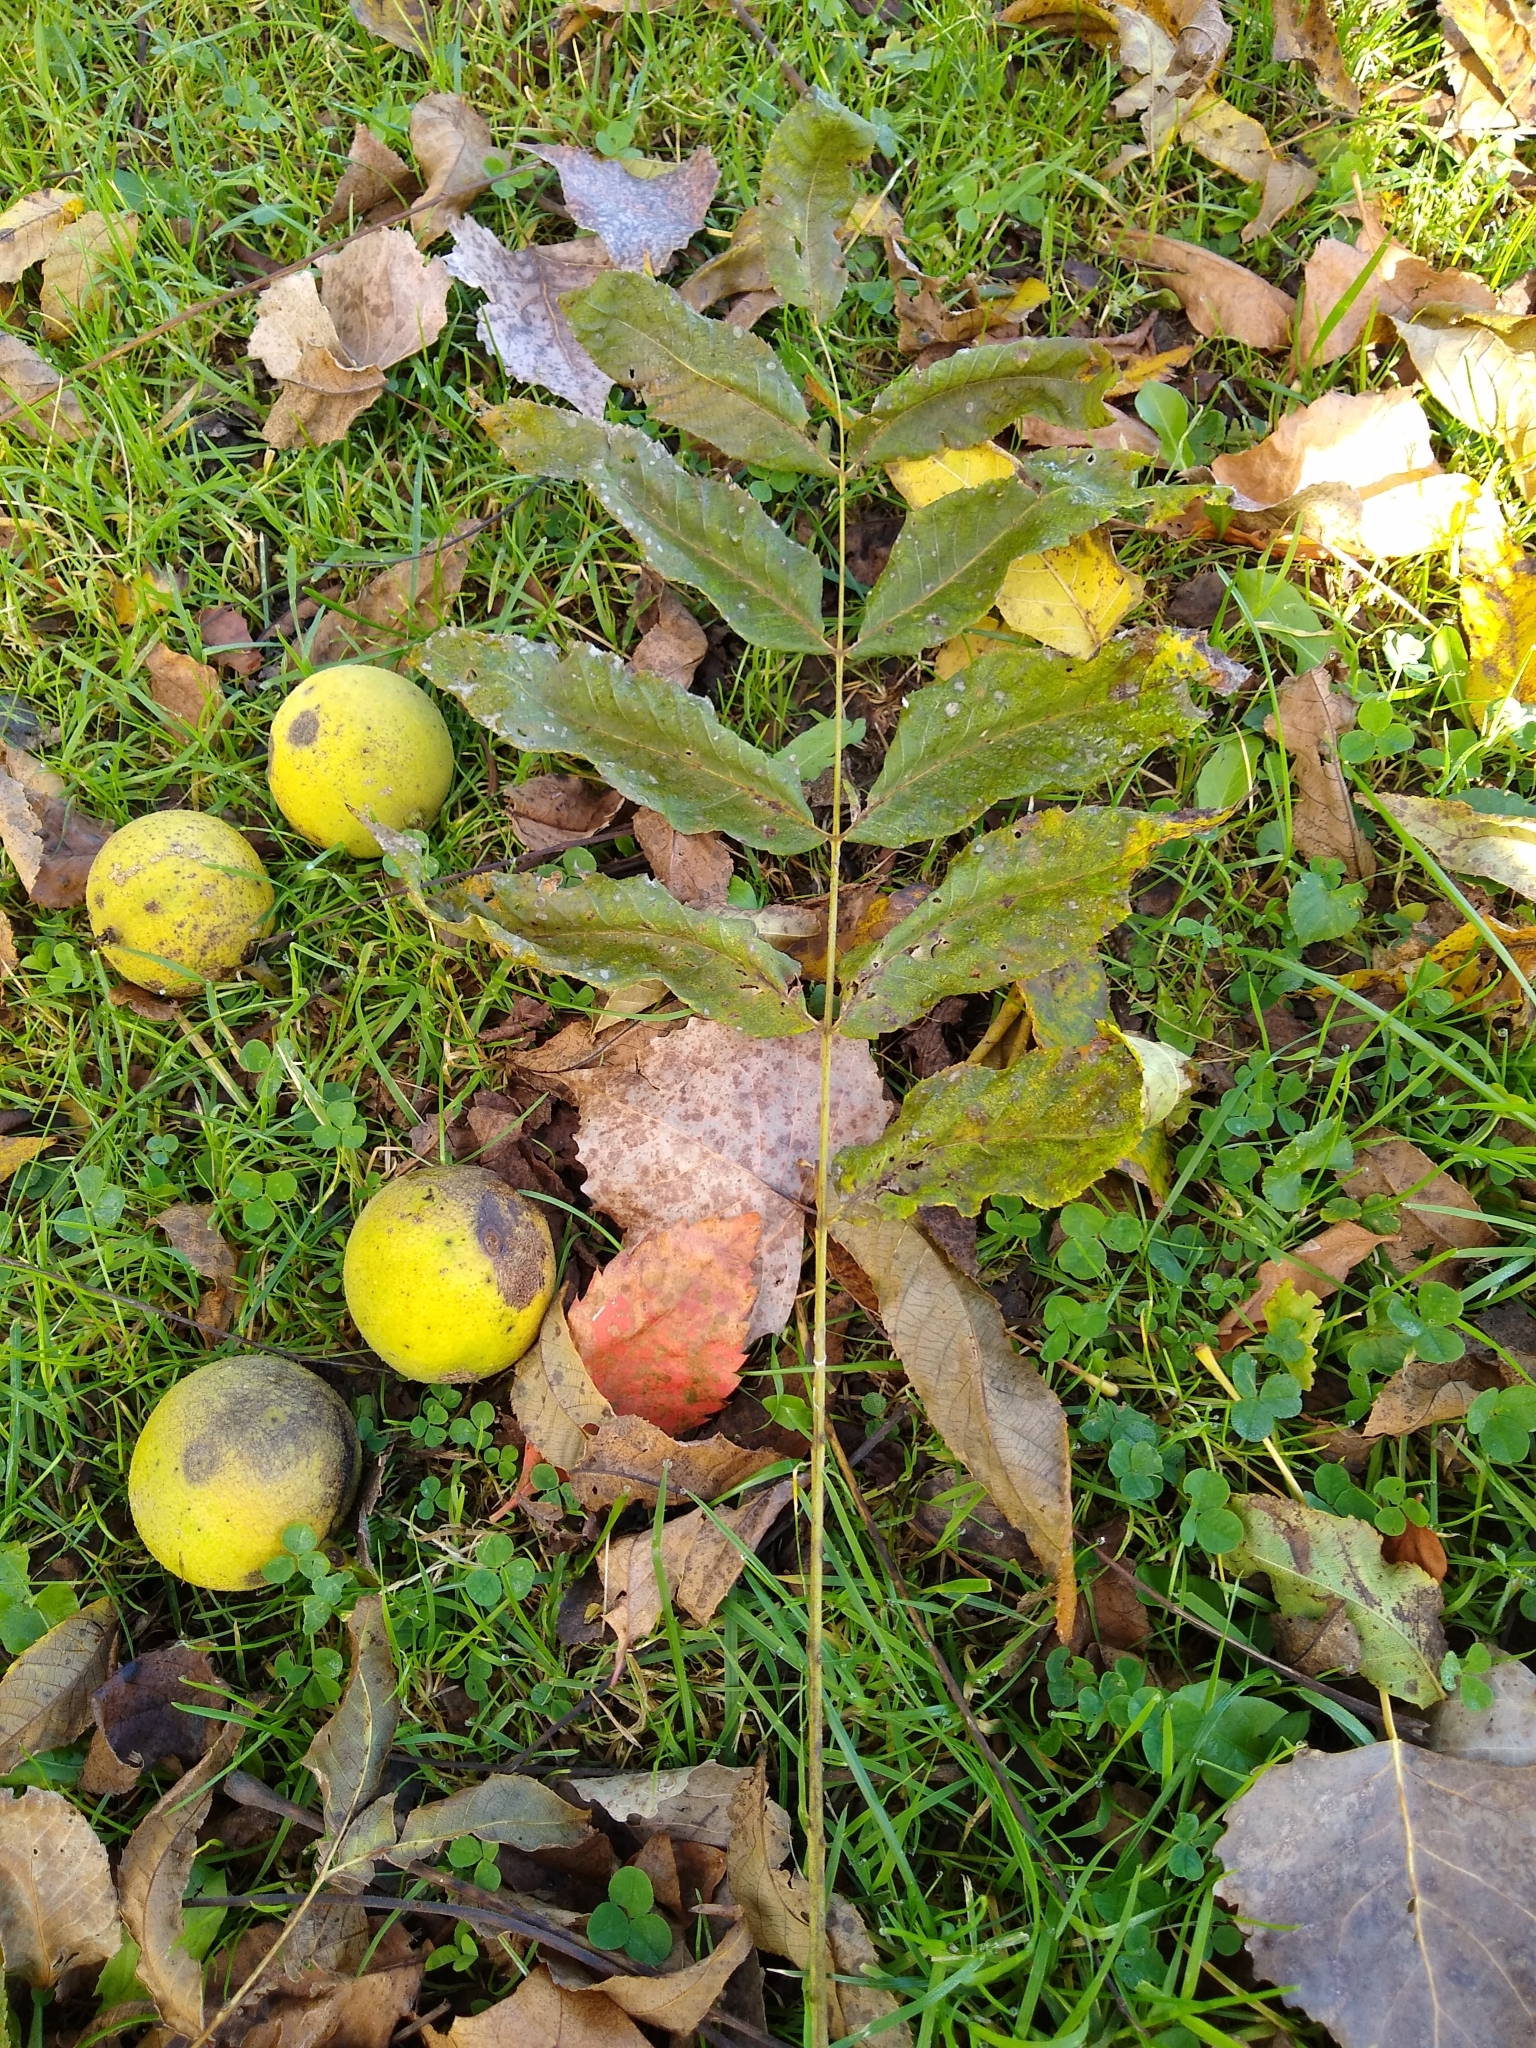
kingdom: Plantae
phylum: Tracheophyta
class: Magnoliopsida
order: Fagales
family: Juglandaceae
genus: Juglans
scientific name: Juglans nigra
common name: Black walnut
